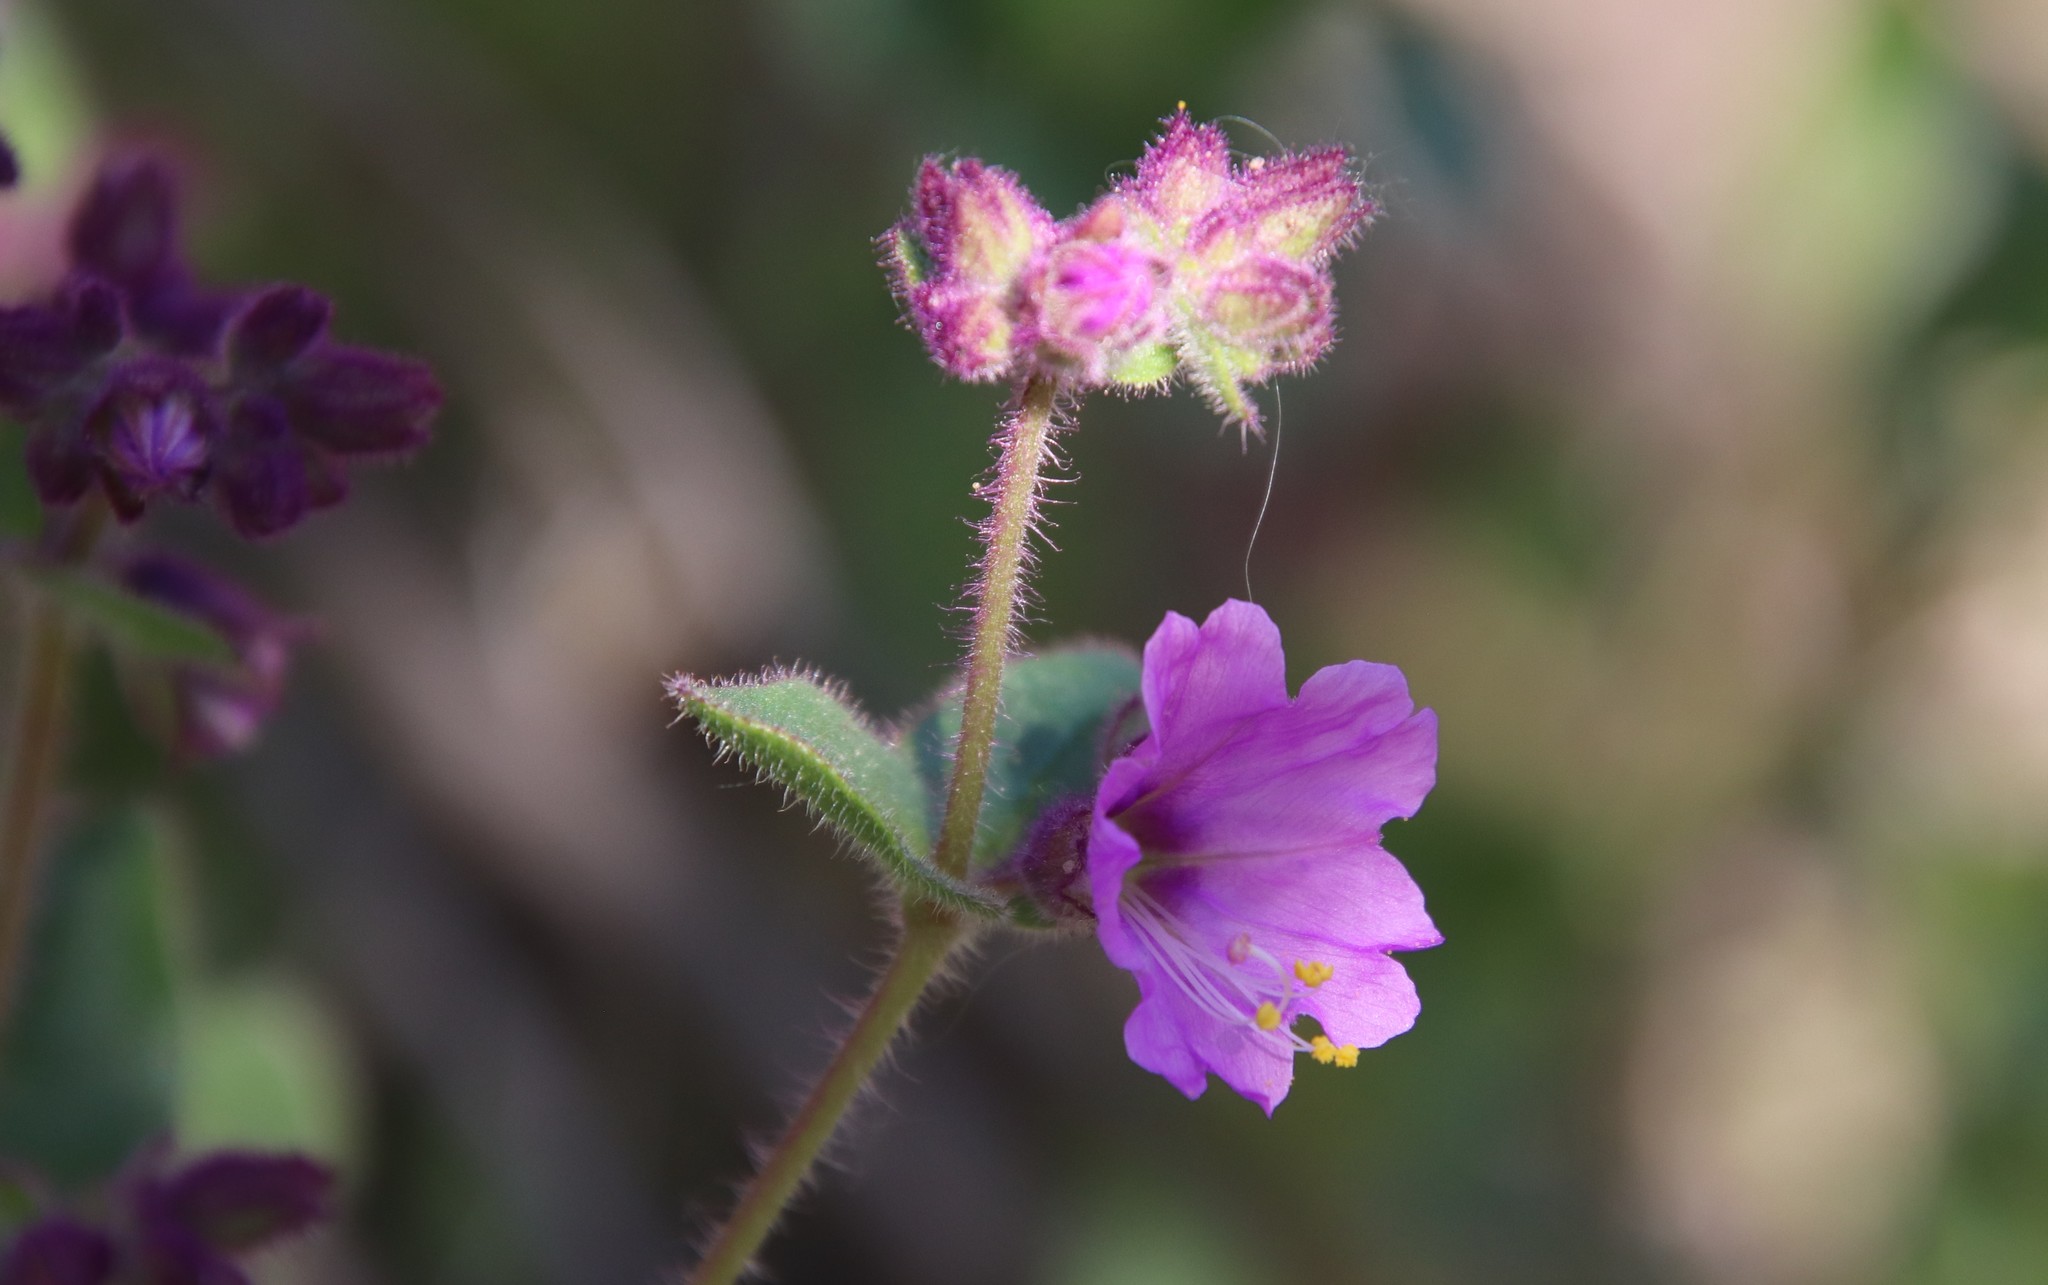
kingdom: Plantae
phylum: Tracheophyta
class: Magnoliopsida
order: Caryophyllales
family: Nyctaginaceae
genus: Mirabilis
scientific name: Mirabilis laevis
